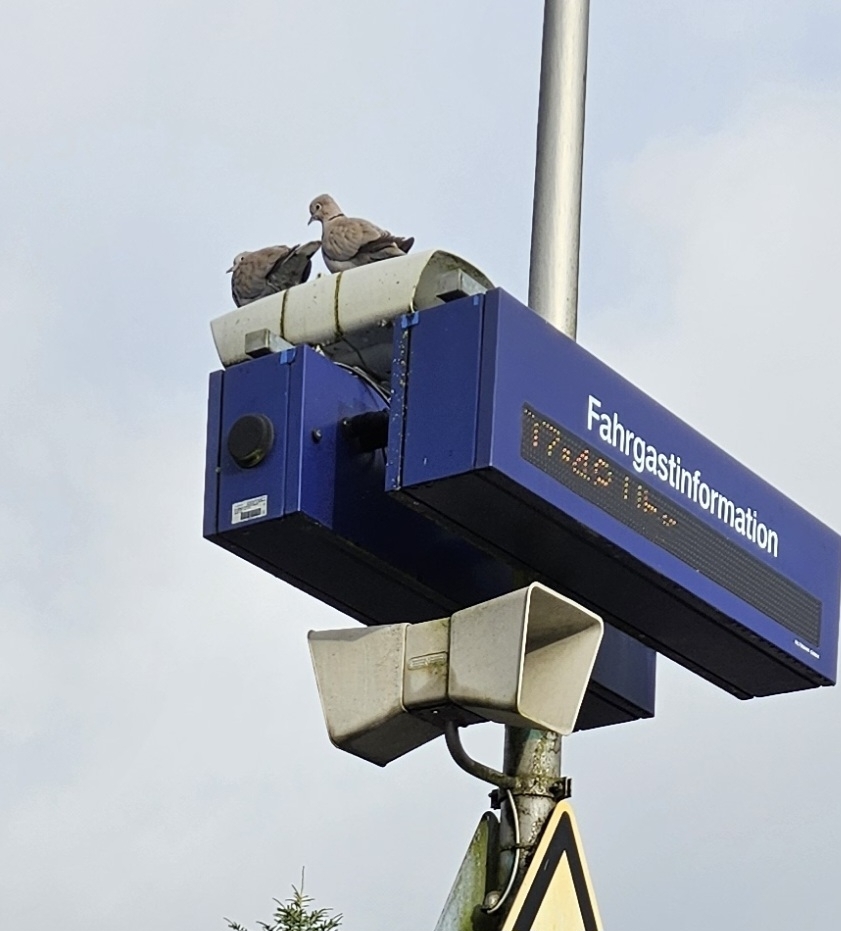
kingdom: Animalia
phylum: Chordata
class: Aves
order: Columbiformes
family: Columbidae
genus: Streptopelia
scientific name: Streptopelia decaocto
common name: Eurasian collared dove
